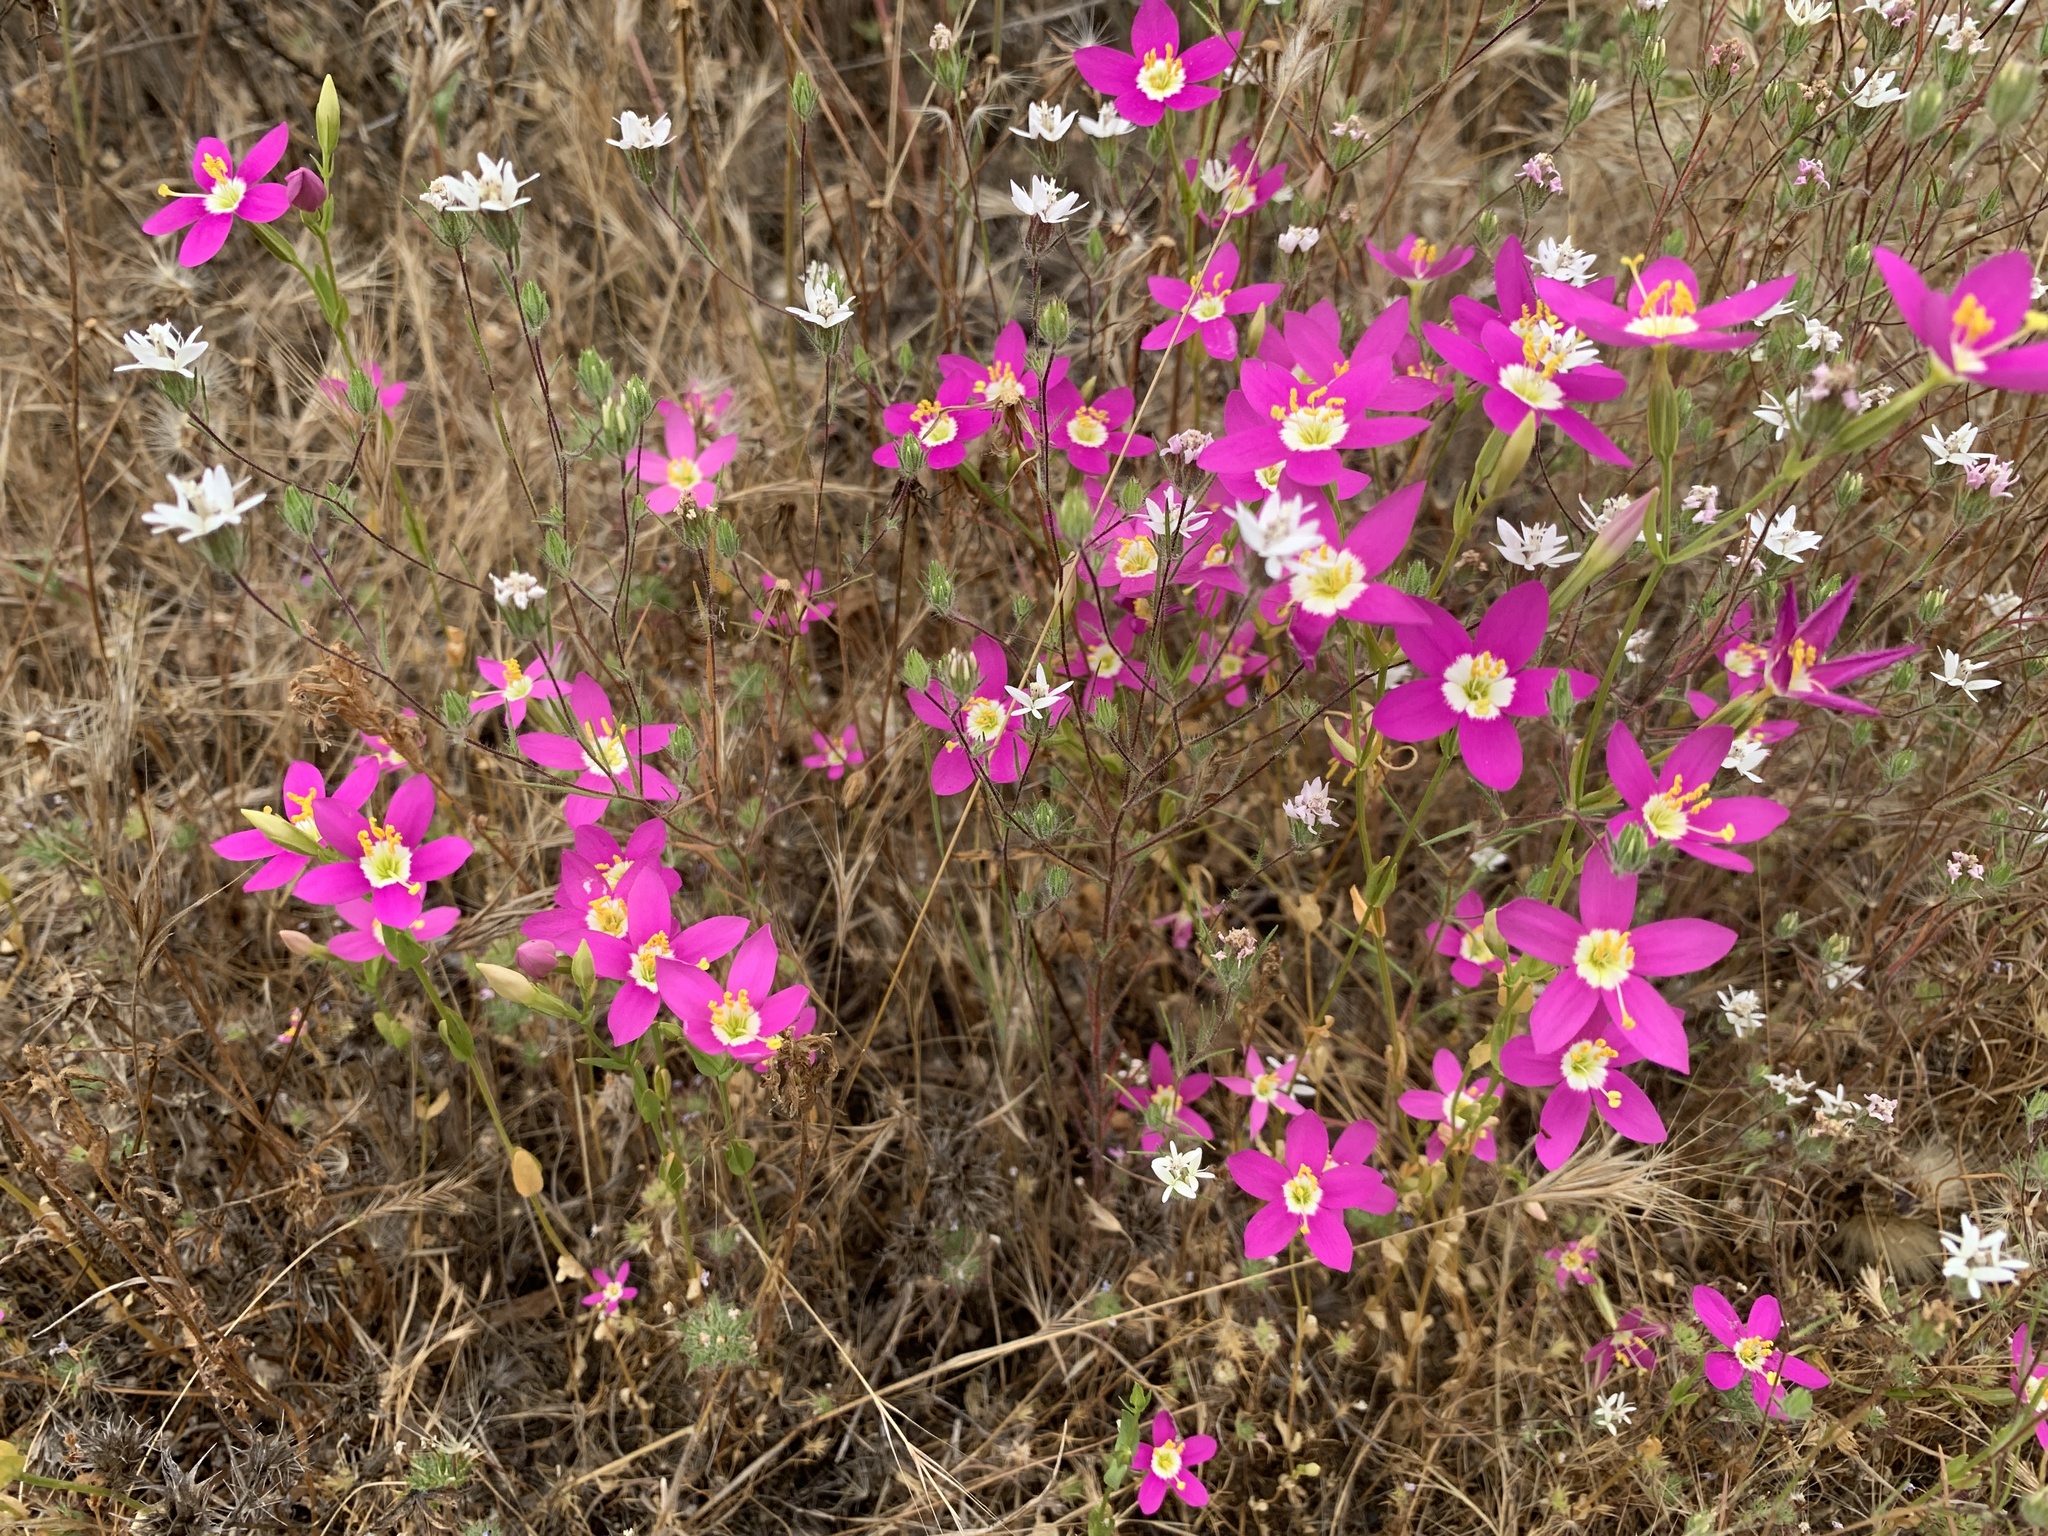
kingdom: Plantae
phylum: Tracheophyta
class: Magnoliopsida
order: Gentianales
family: Gentianaceae
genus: Zeltnera
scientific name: Zeltnera venusta
